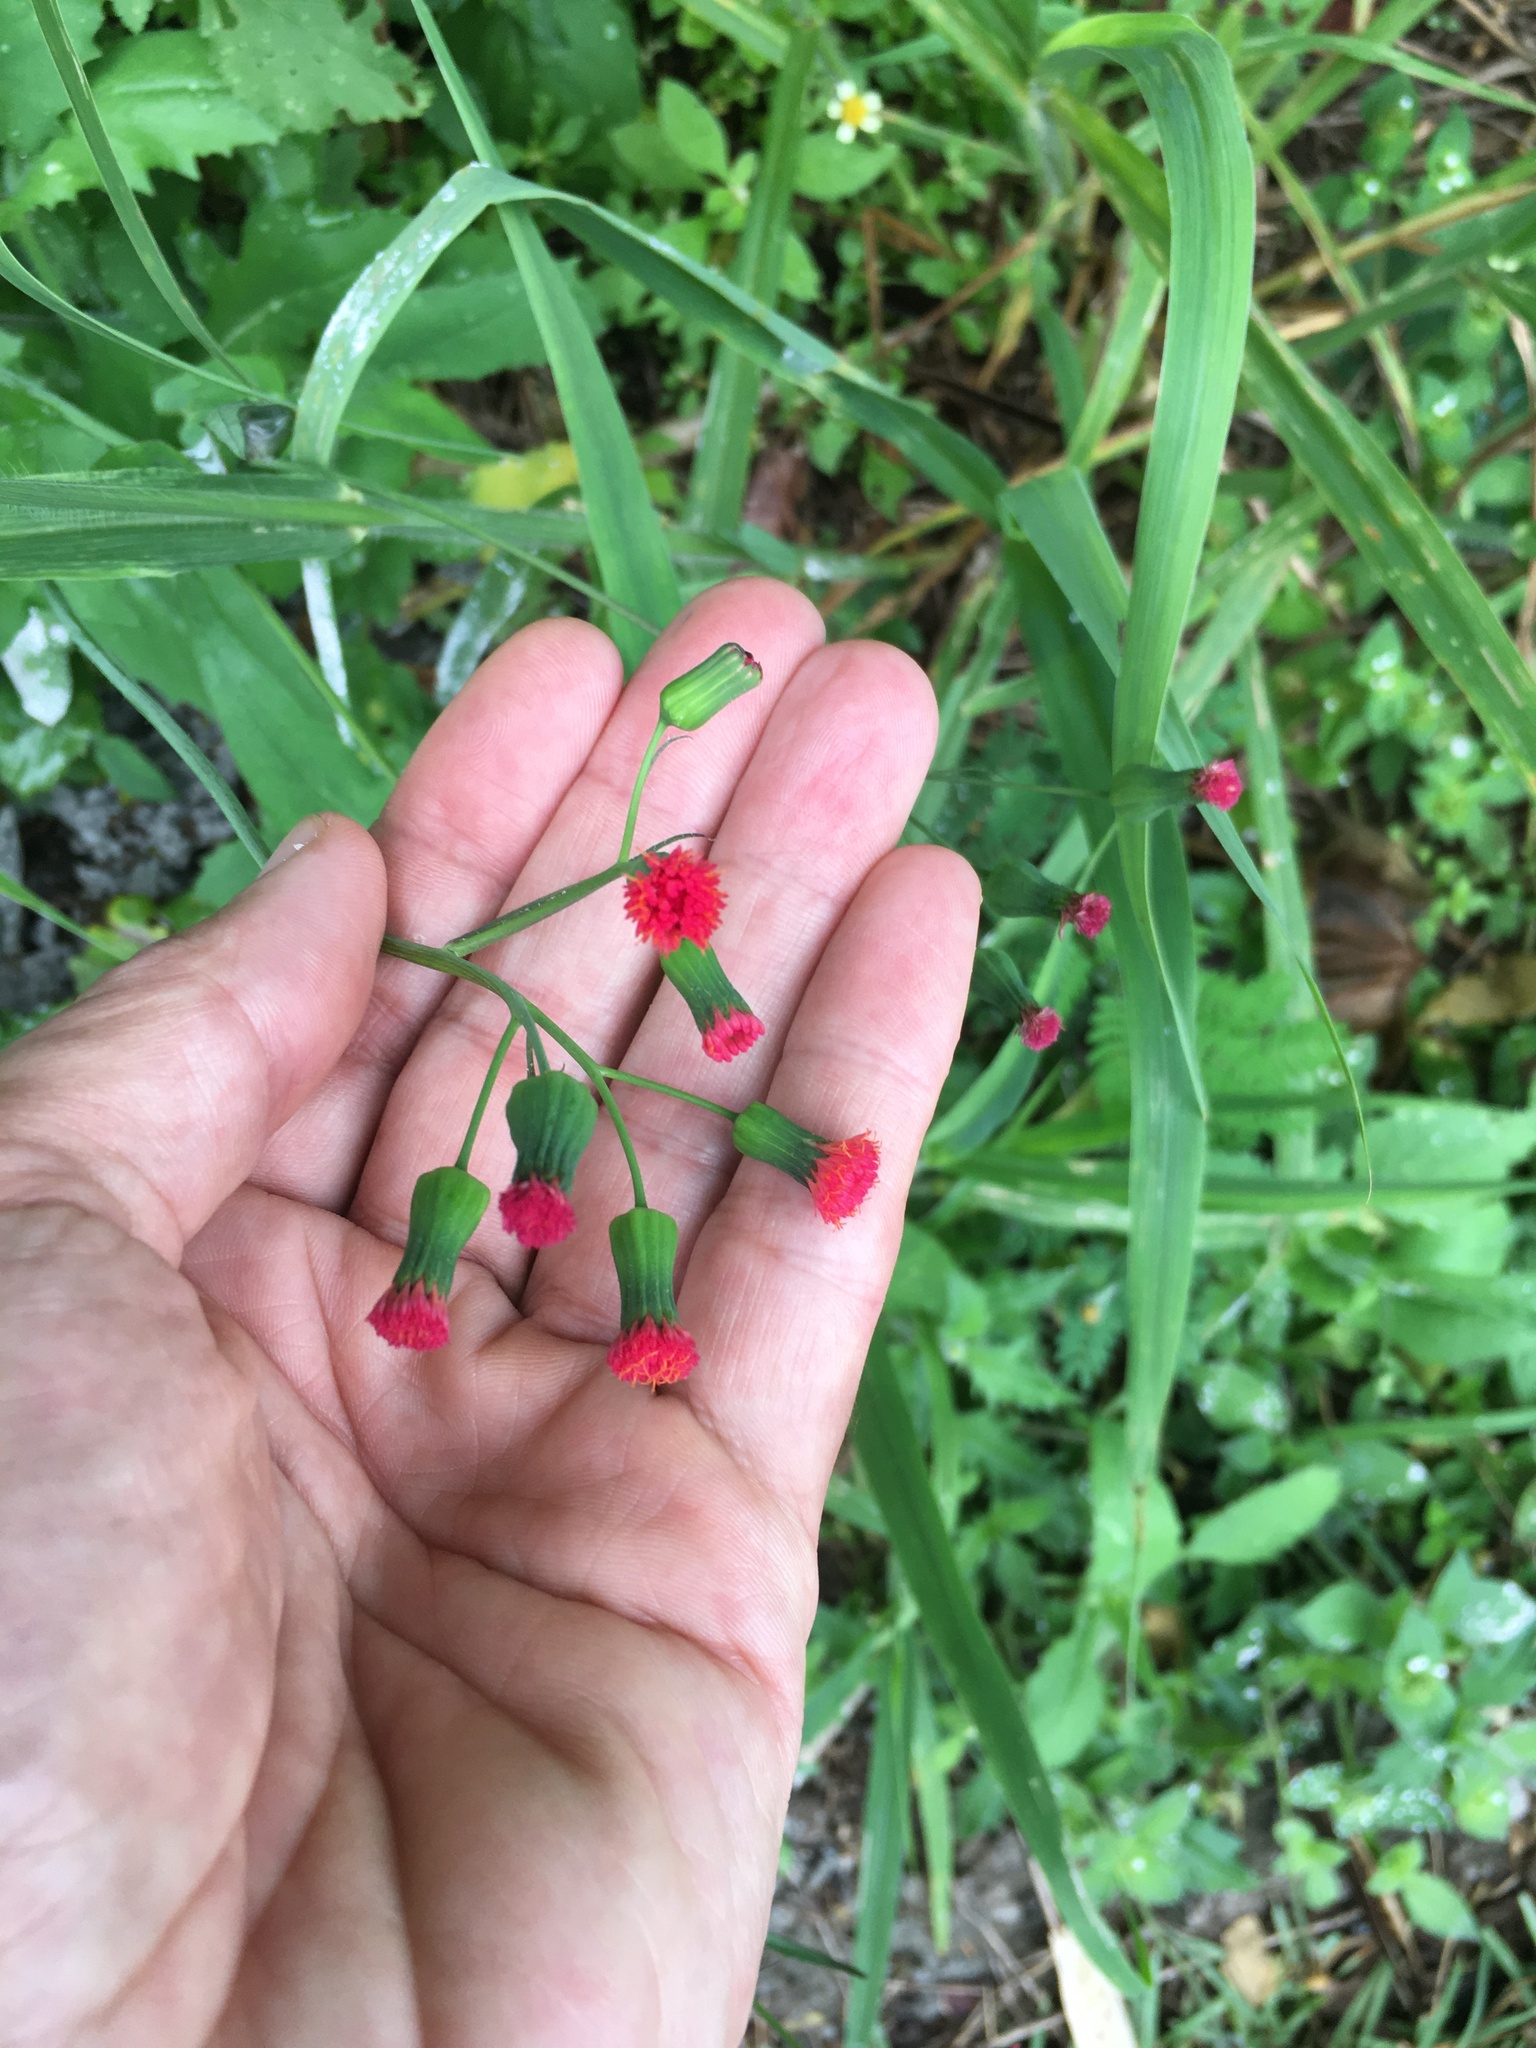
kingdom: Plantae
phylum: Tracheophyta
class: Magnoliopsida
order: Asterales
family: Asteraceae
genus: Emilia
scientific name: Emilia fosbergii
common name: Florida tasselflower
